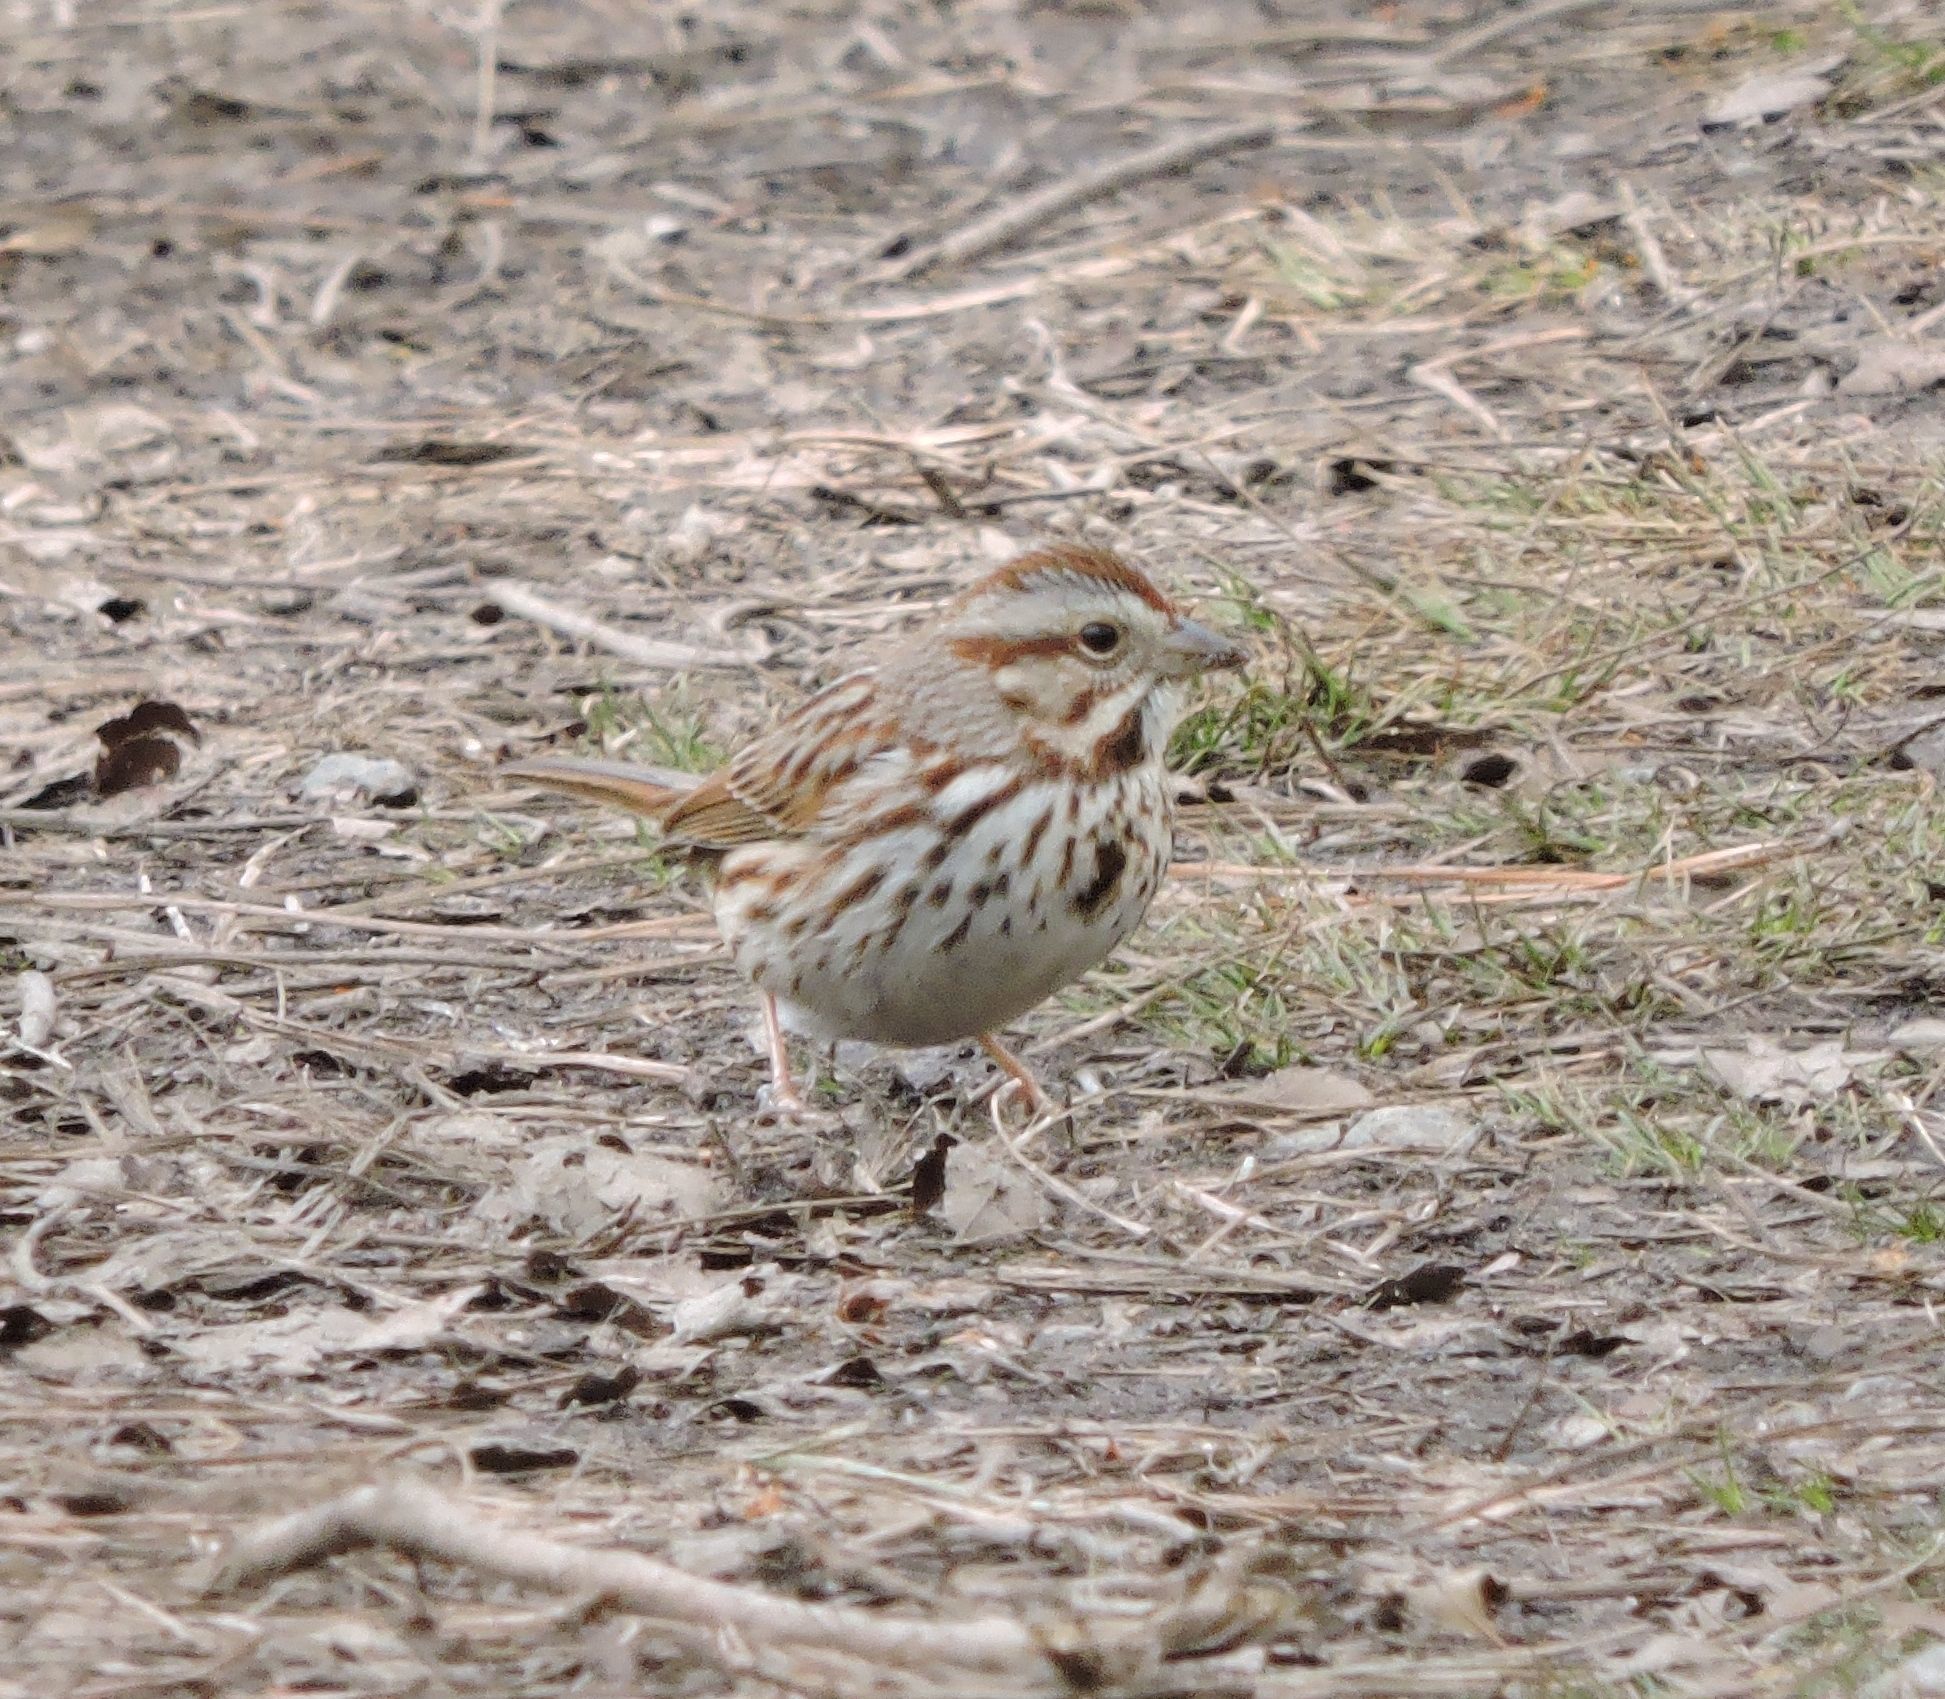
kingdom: Animalia
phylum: Chordata
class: Aves
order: Passeriformes
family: Passerellidae
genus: Melospiza
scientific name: Melospiza melodia
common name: Song sparrow
